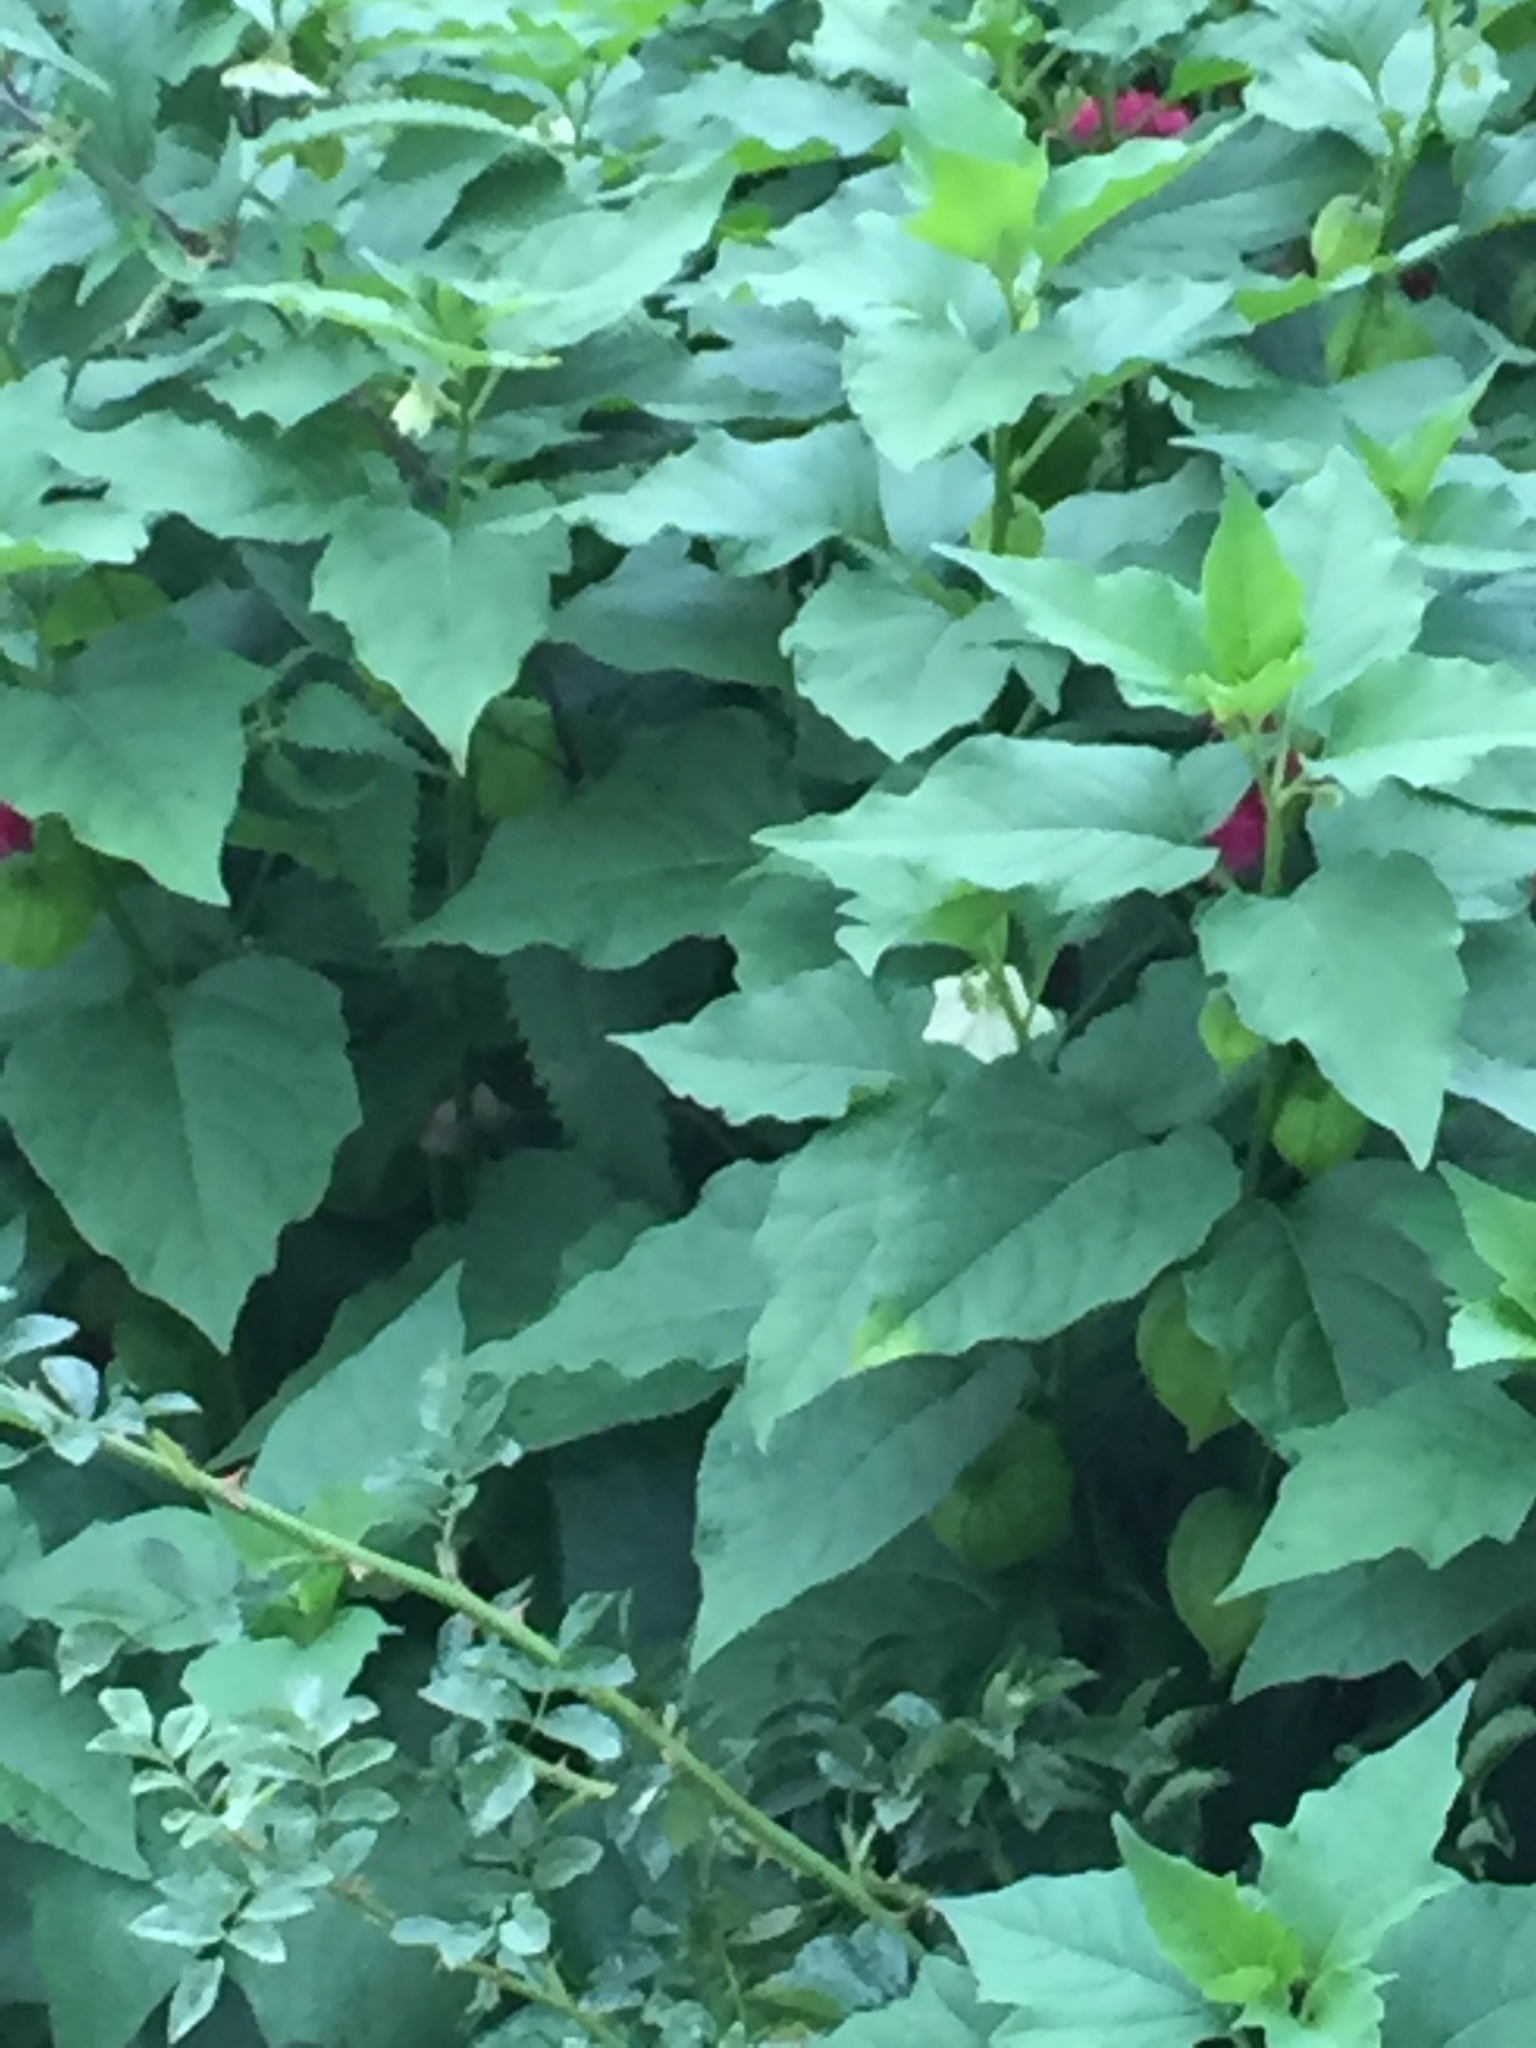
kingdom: Plantae
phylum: Tracheophyta
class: Magnoliopsida
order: Solanales
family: Solanaceae
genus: Alkekengi
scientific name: Alkekengi officinarum
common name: Japanese-lantern
